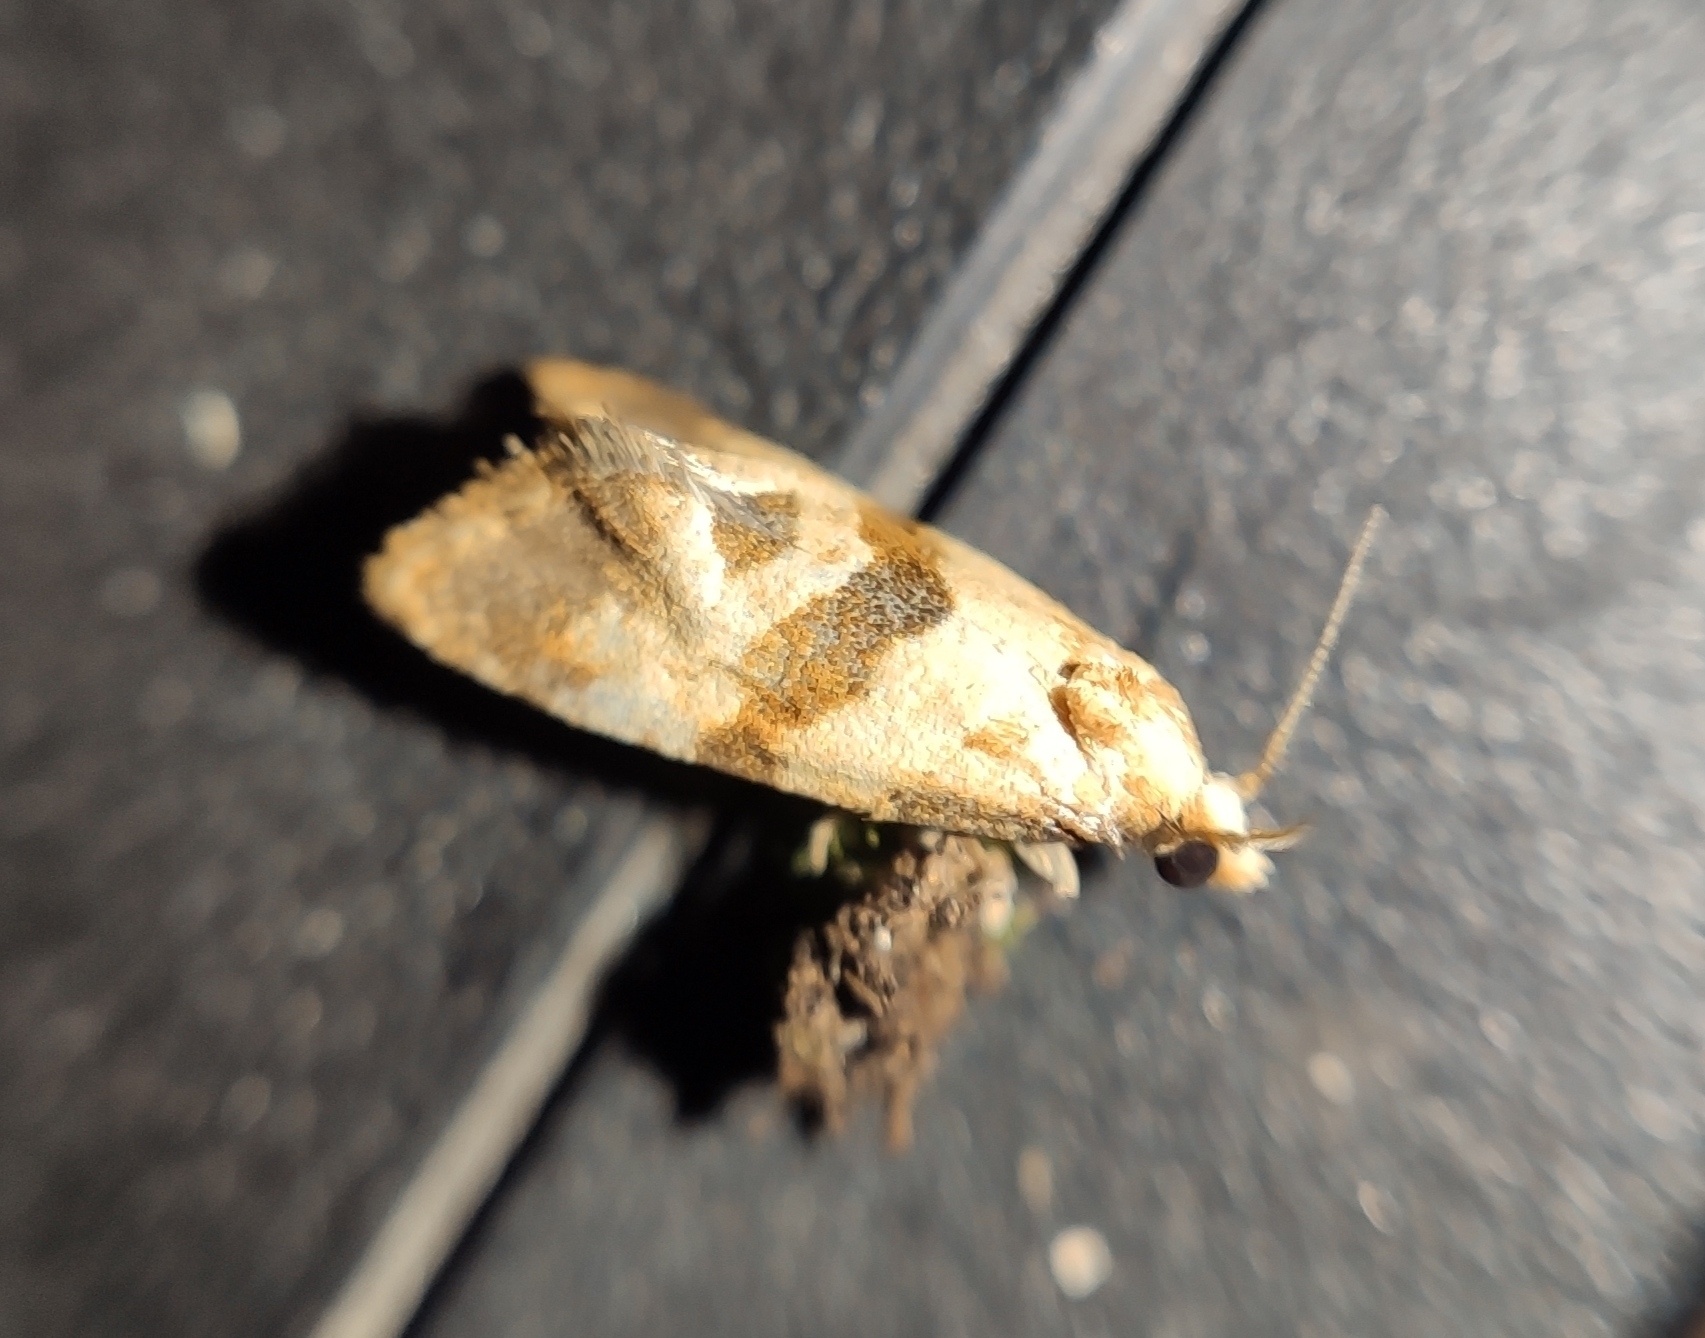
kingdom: Animalia
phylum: Arthropoda
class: Insecta
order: Lepidoptera
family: Tortricidae
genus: Phalonidia
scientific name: Phalonidia contractana
